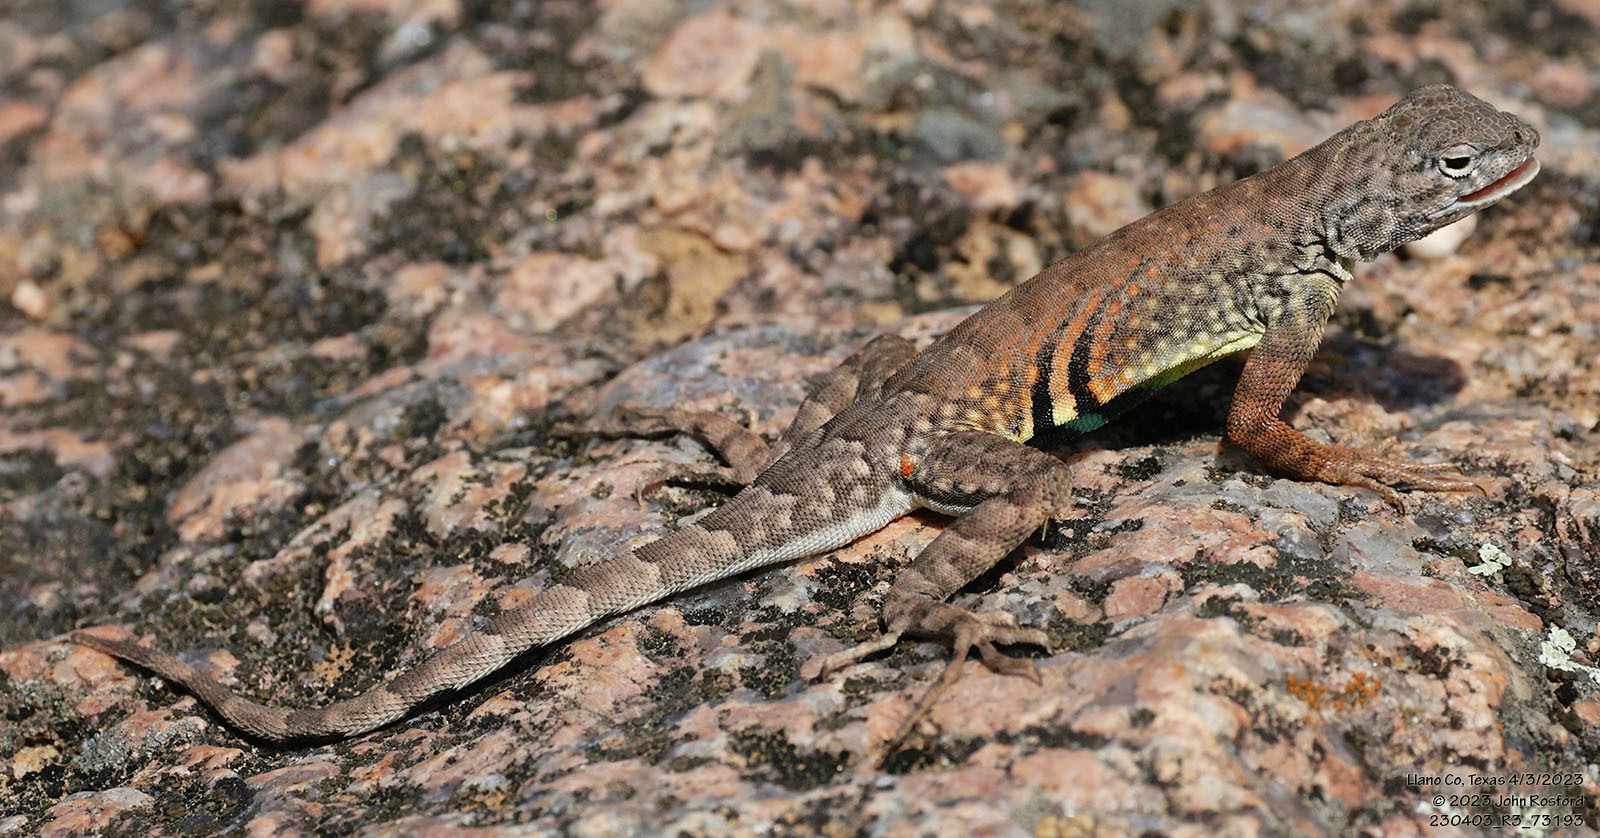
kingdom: Animalia
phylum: Chordata
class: Squamata
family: Phrynosomatidae
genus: Cophosaurus
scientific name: Cophosaurus texanus
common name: Greater earless lizard
